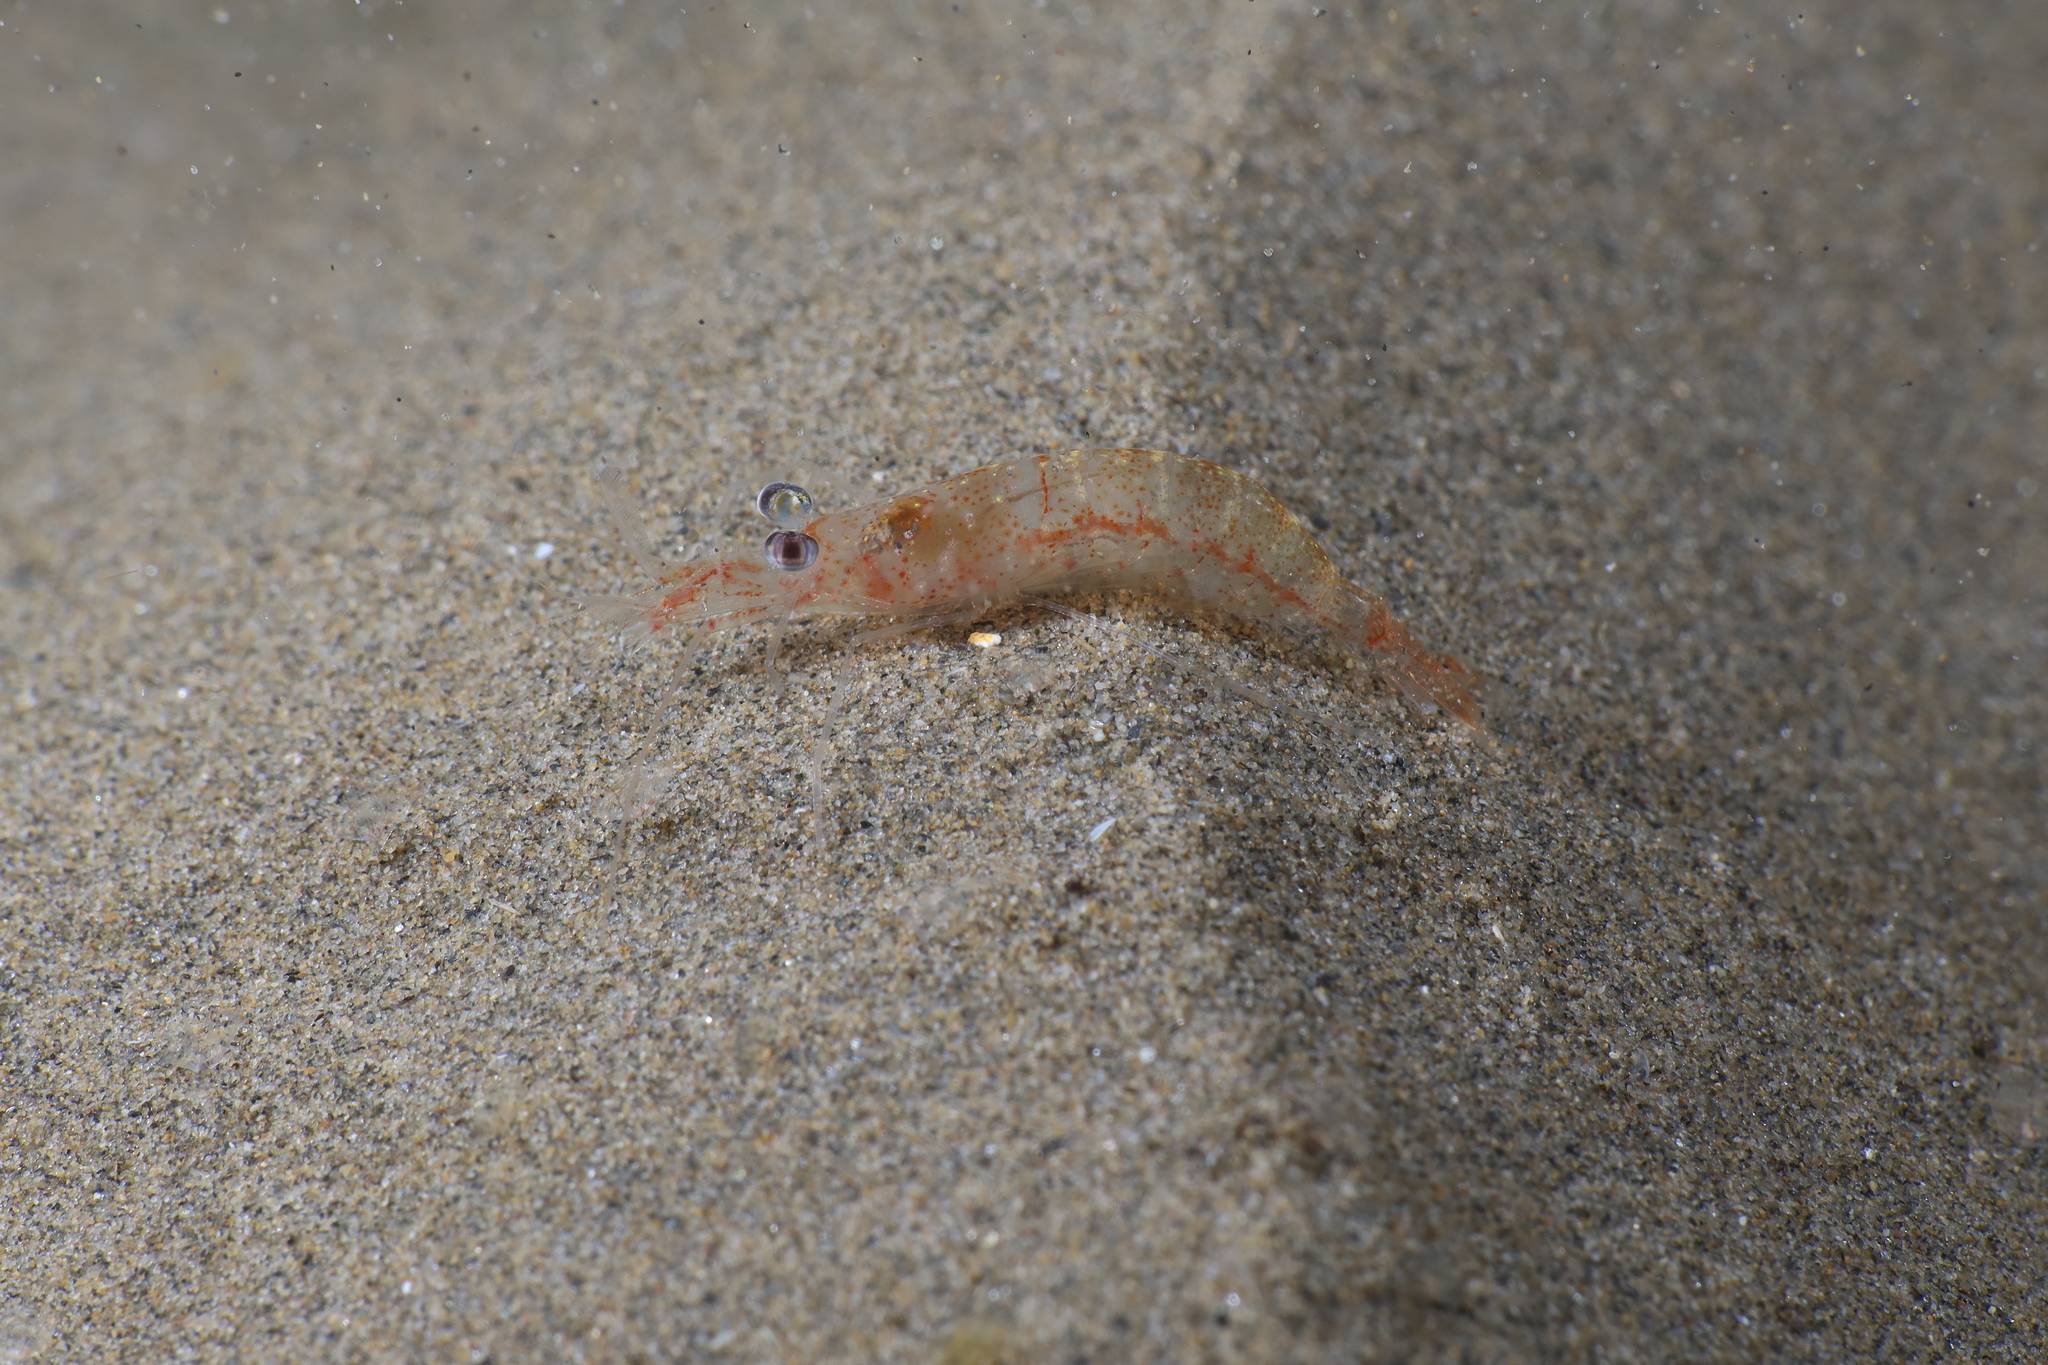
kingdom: Animalia
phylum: Arthropoda
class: Malacostraca
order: Decapoda
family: Processidae
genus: Processa
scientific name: Processa modica
